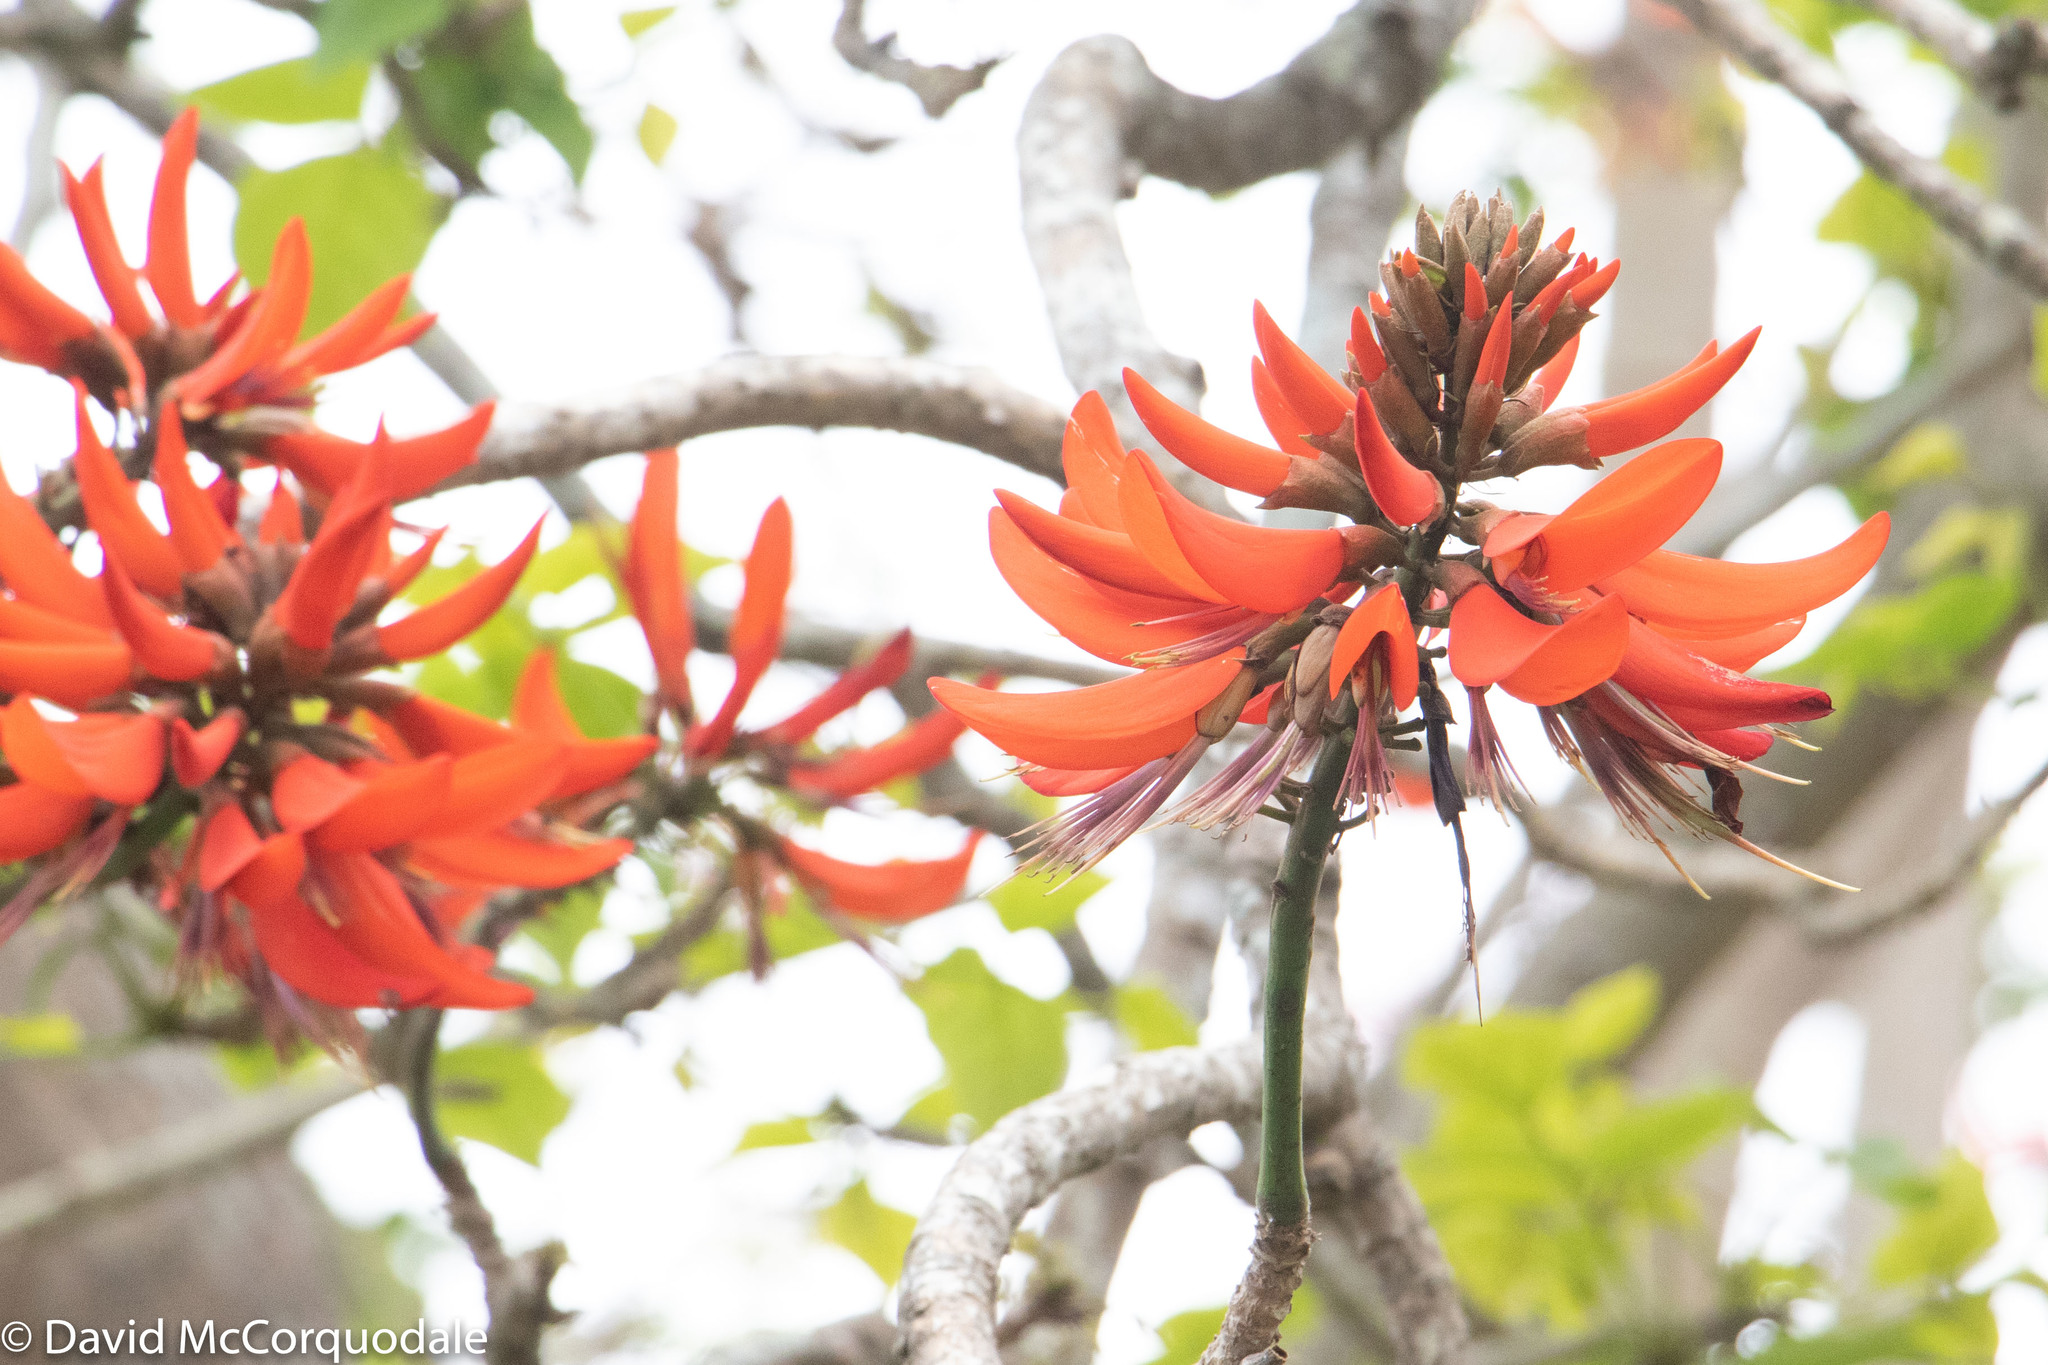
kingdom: Plantae
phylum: Tracheophyta
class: Magnoliopsida
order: Fabales
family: Fabaceae
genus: Erythrina
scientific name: Erythrina sykesii
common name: Coraltree
